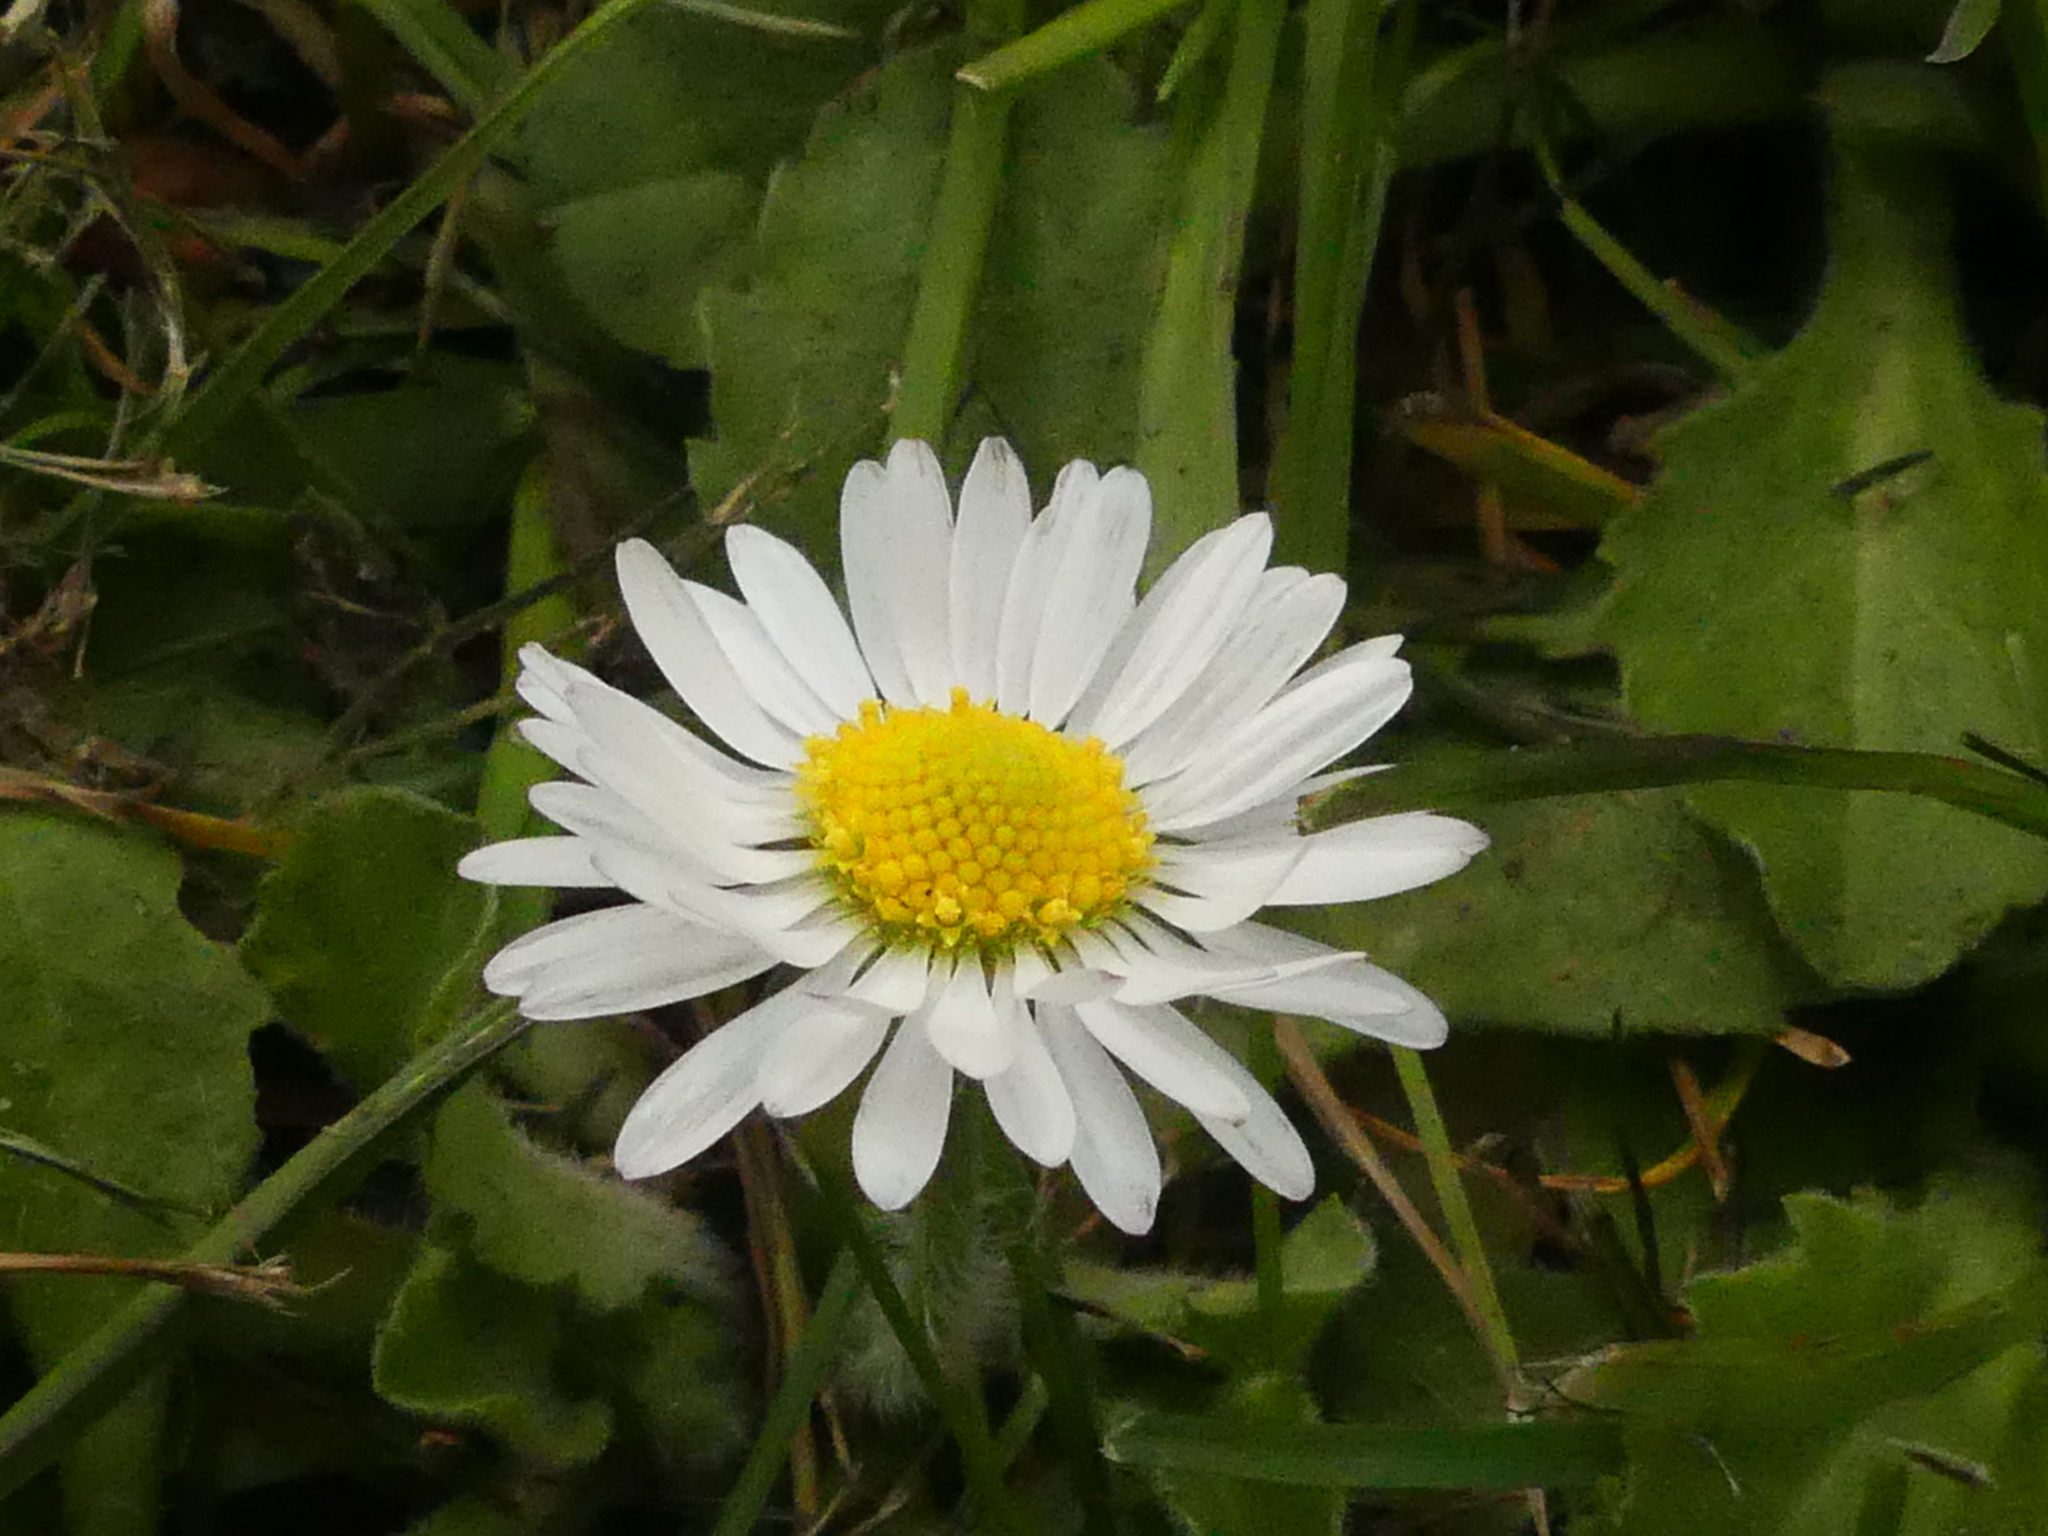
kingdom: Plantae
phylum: Tracheophyta
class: Magnoliopsida
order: Asterales
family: Asteraceae
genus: Bellis
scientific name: Bellis perennis
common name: Lawndaisy
